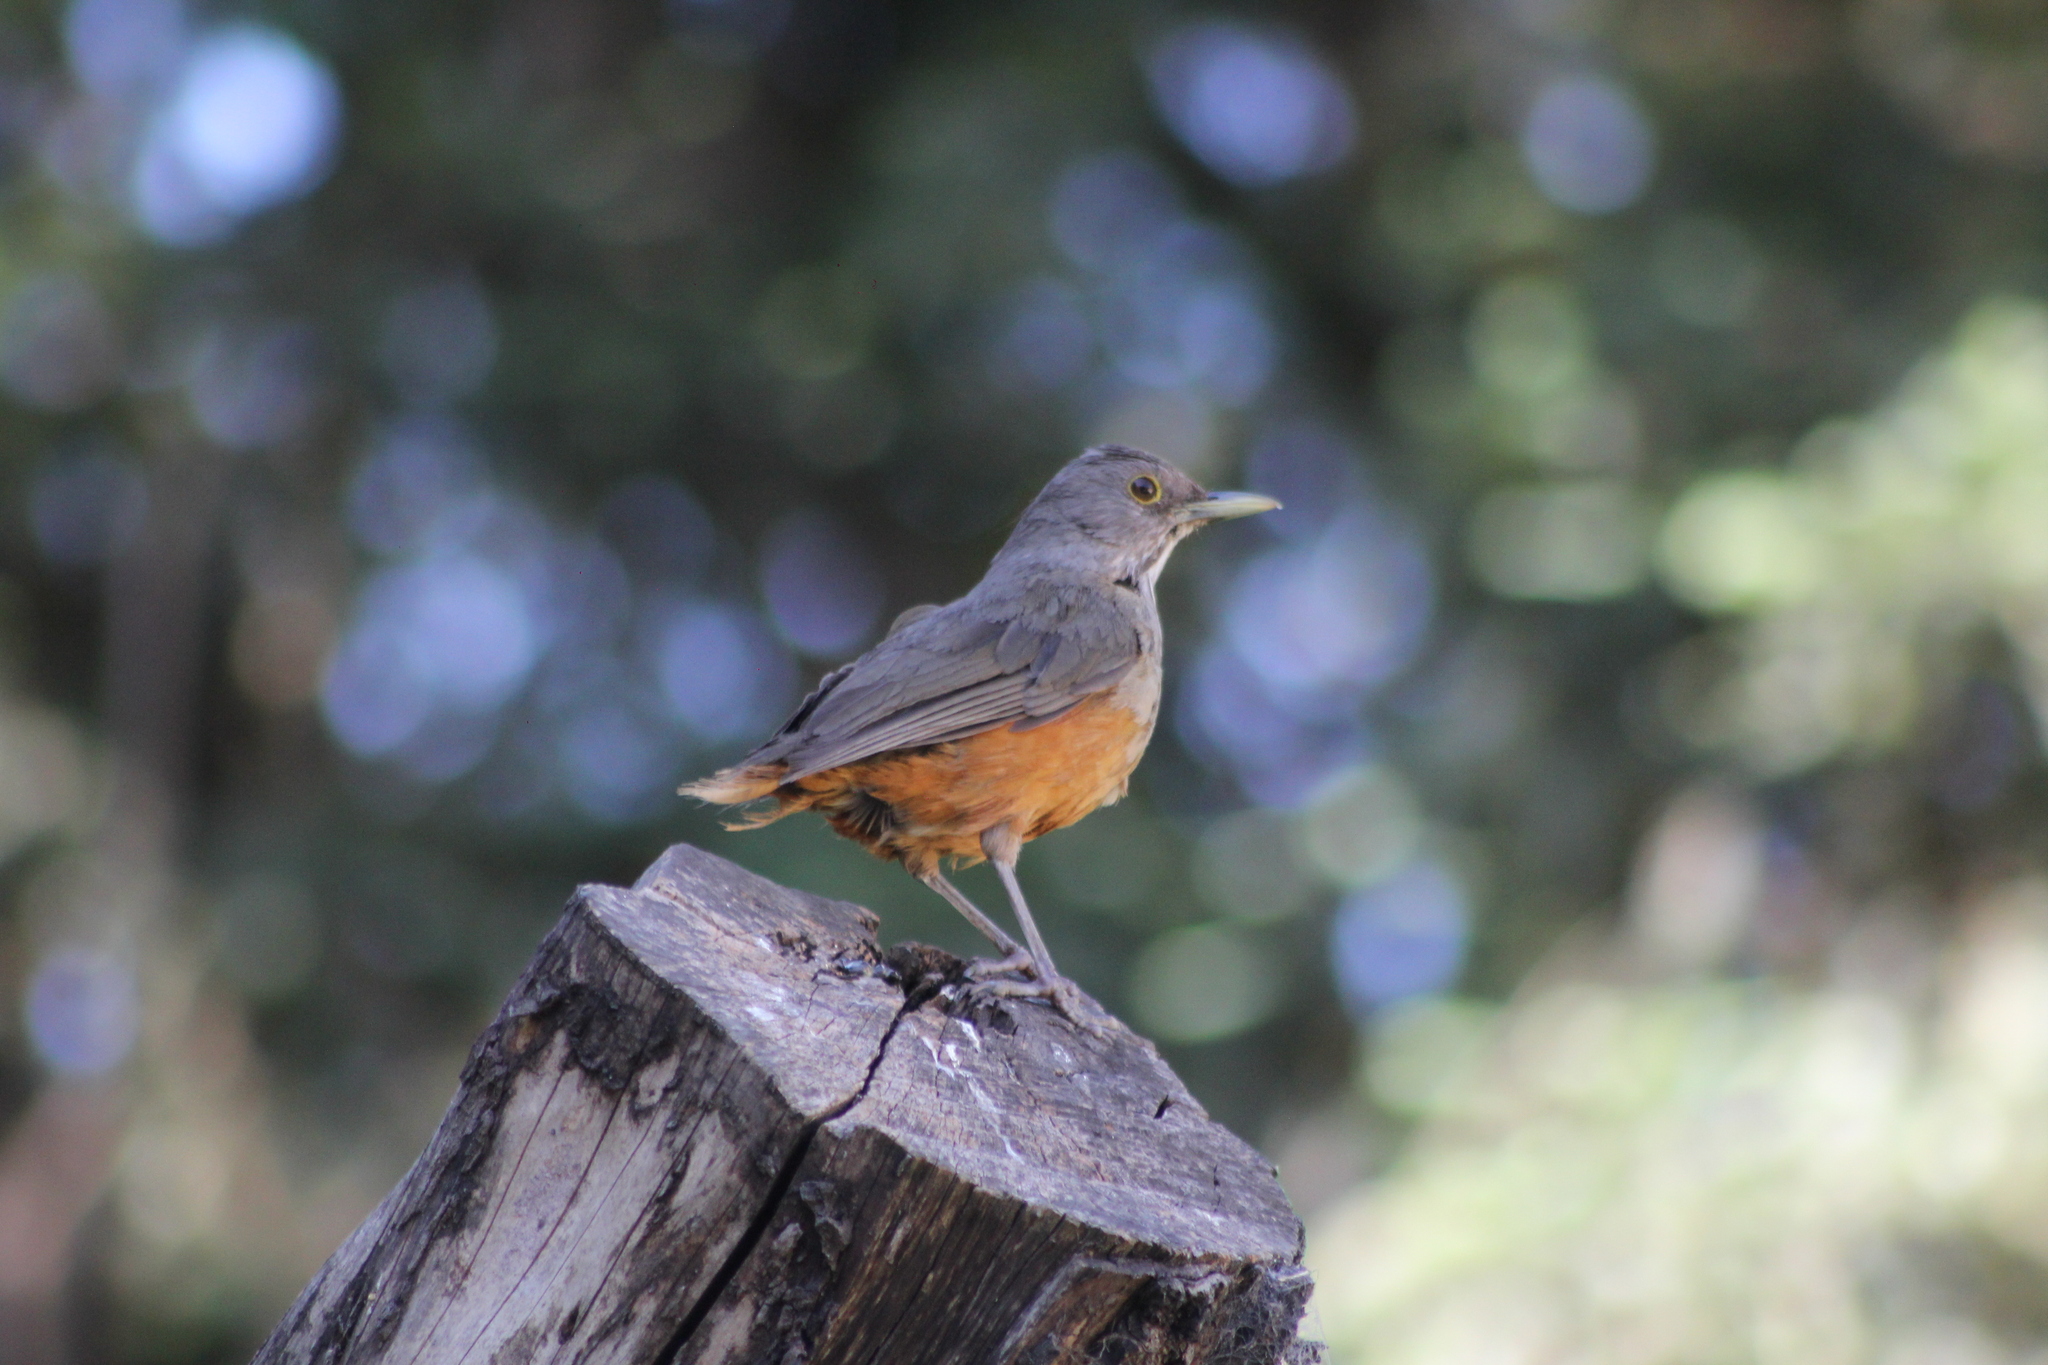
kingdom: Animalia
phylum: Chordata
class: Aves
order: Passeriformes
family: Turdidae
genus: Turdus
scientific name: Turdus rufiventris
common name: Rufous-bellied thrush
